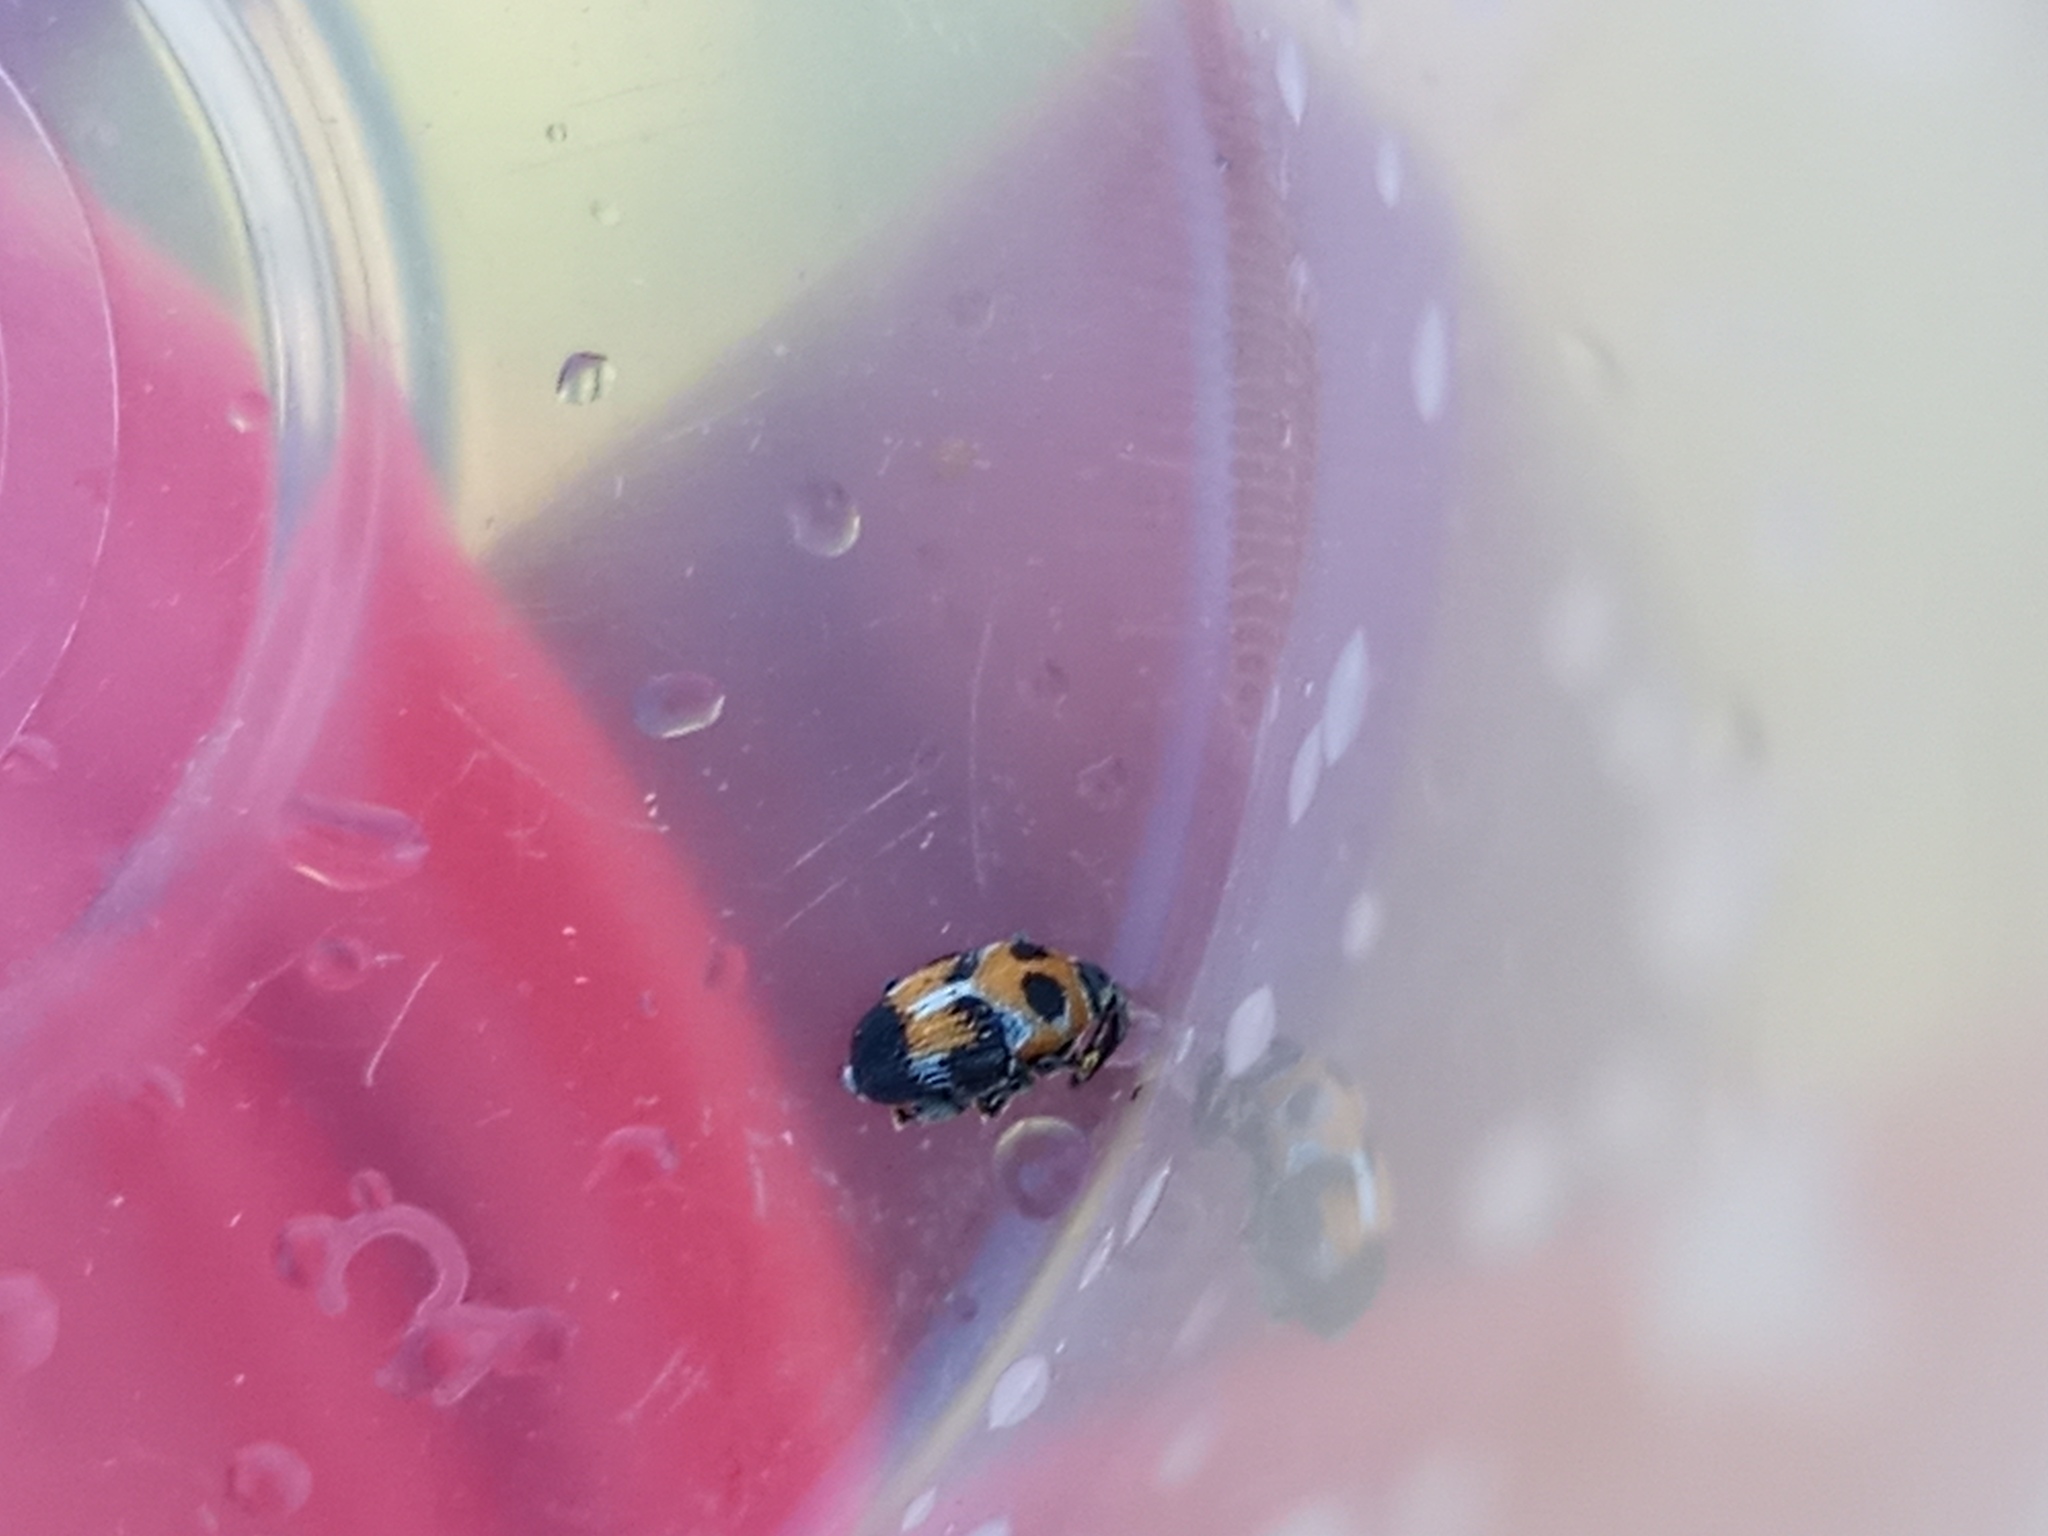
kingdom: Animalia
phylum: Arthropoda
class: Insecta
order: Coleoptera
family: Curculionidae
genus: Leptoschoinus
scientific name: Leptoschoinus fucatus
